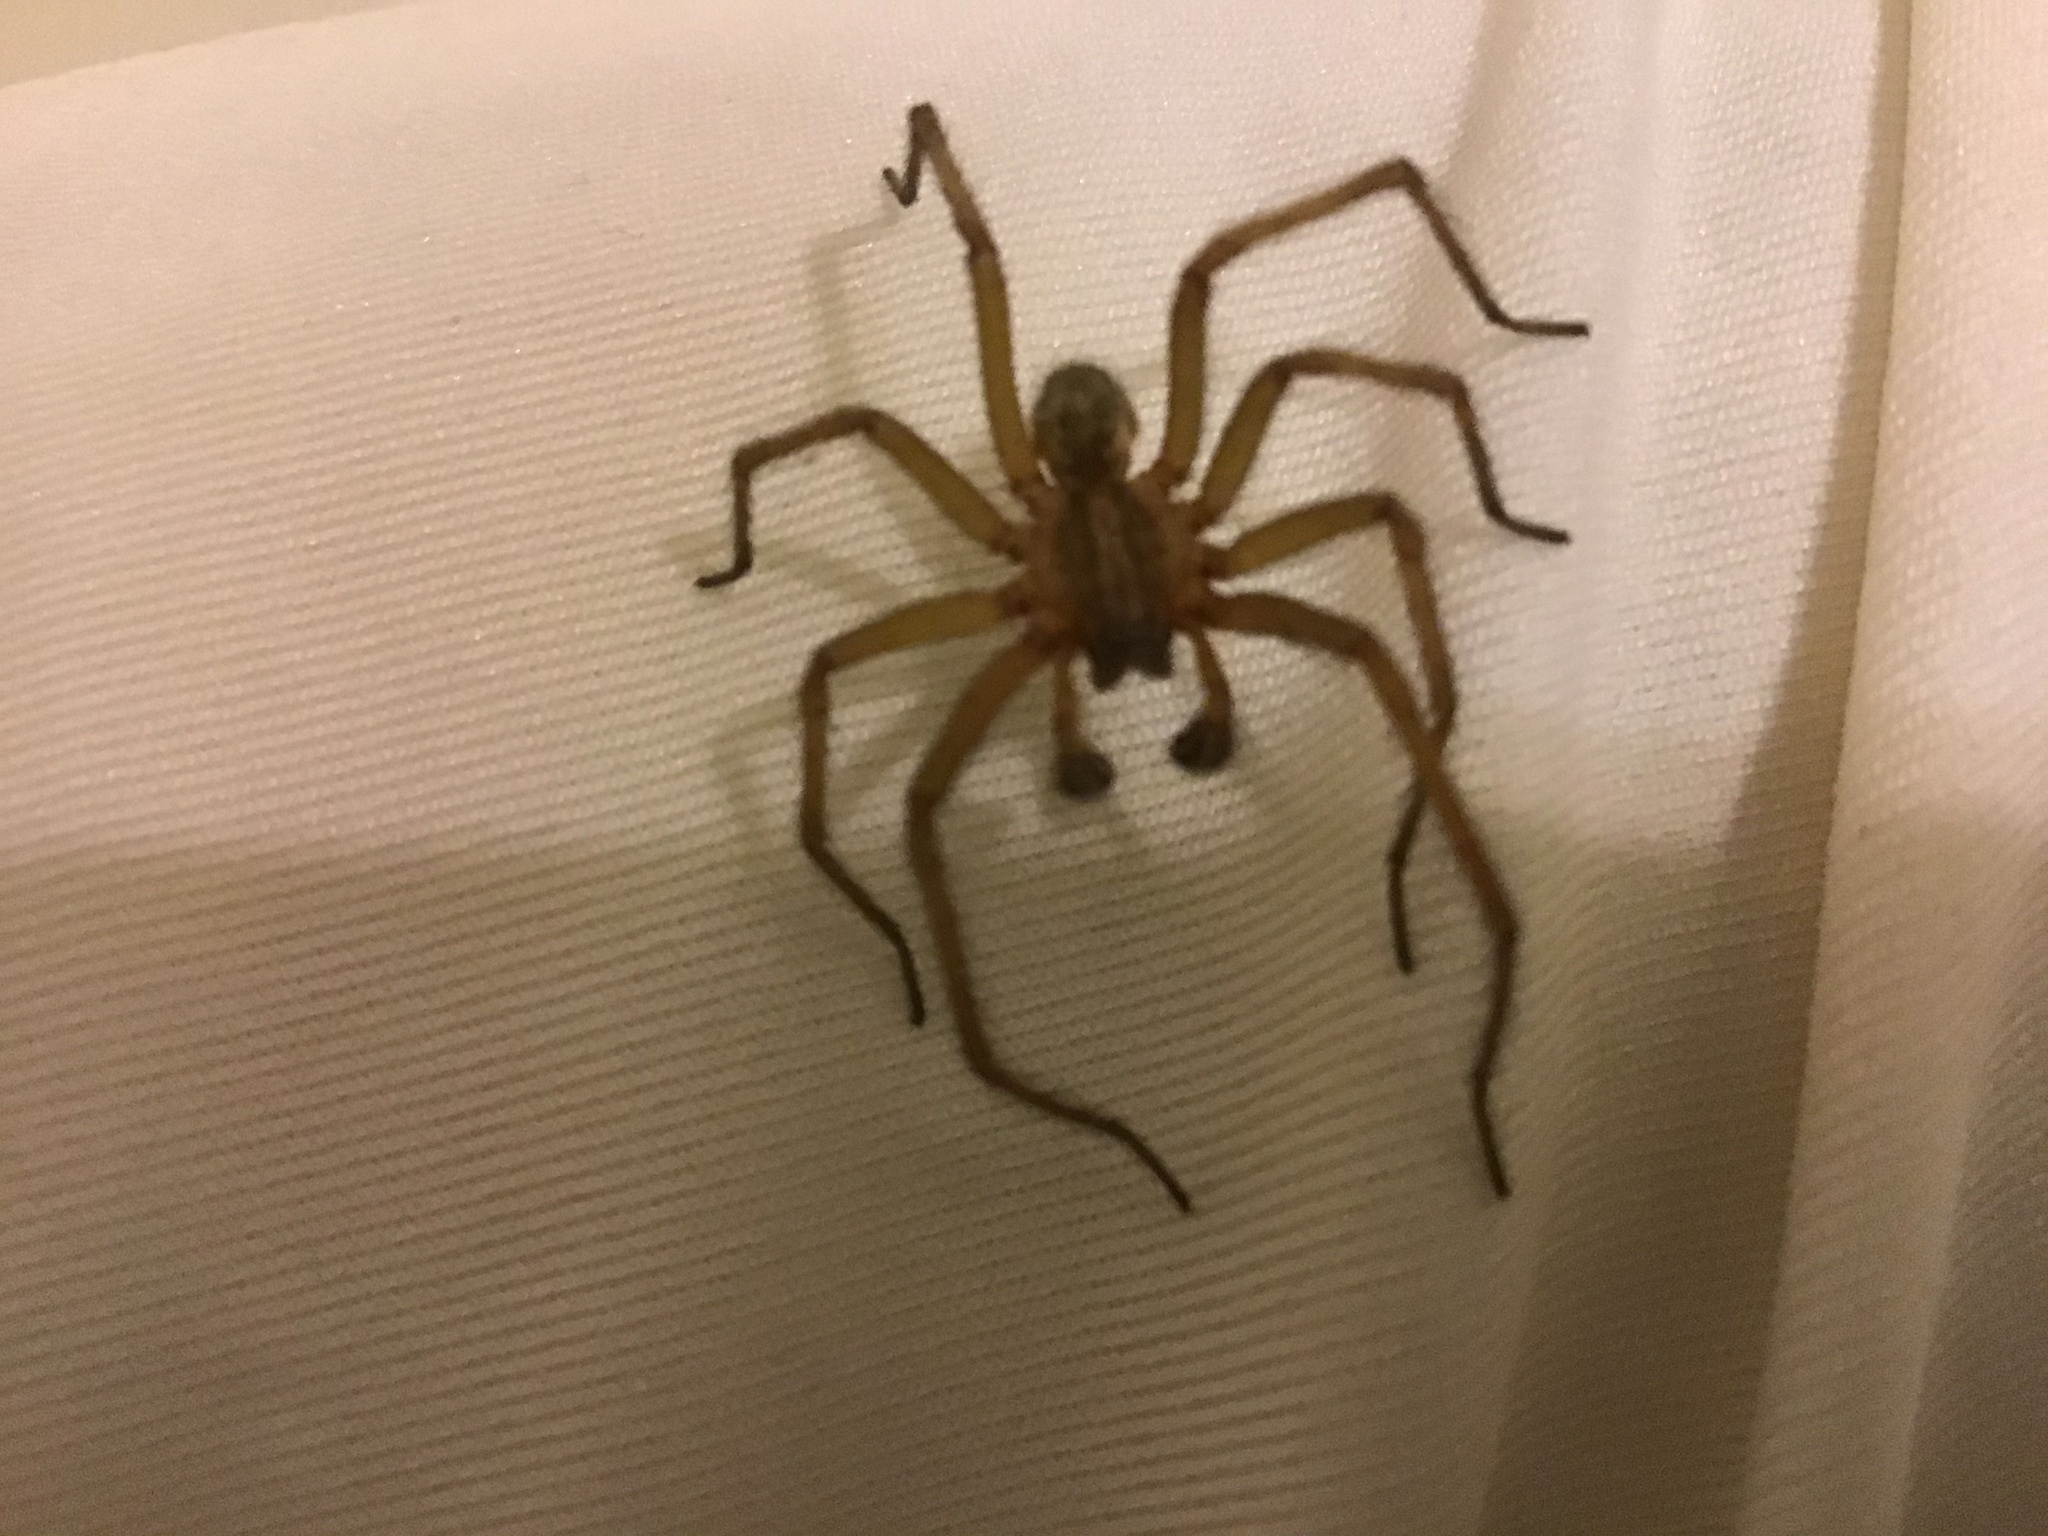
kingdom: Animalia
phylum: Arthropoda
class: Arachnida
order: Araneae
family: Agelenidae
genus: Eratigena
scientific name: Eratigena agrestis
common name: Hobo spider
